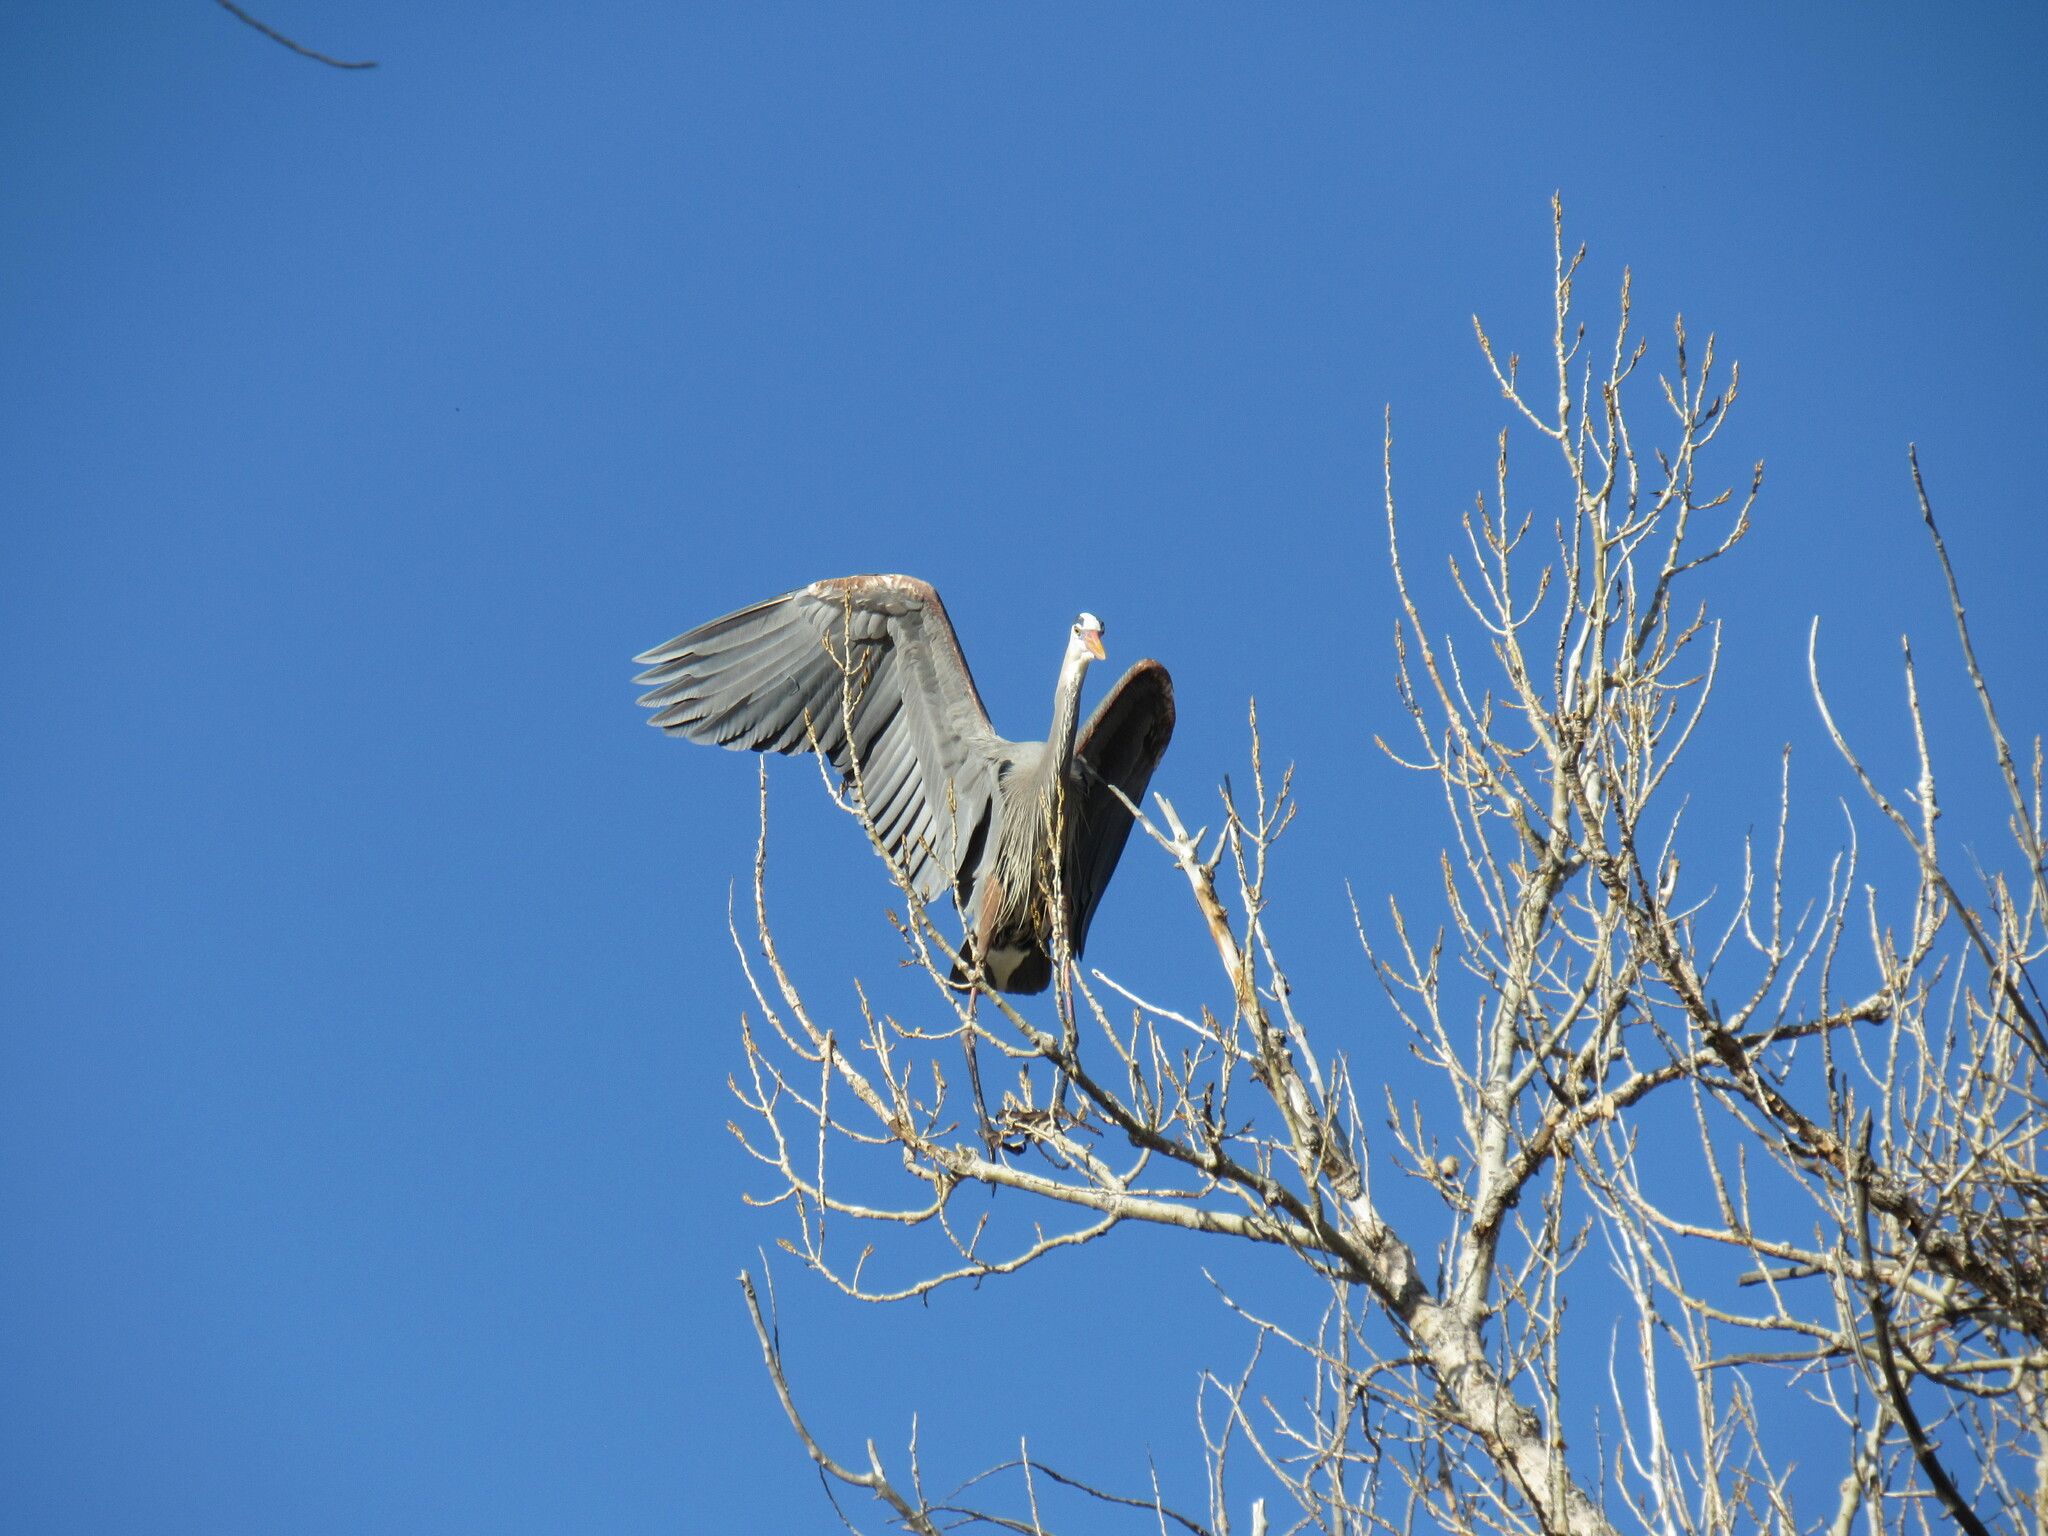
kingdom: Animalia
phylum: Chordata
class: Aves
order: Pelecaniformes
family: Ardeidae
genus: Ardea
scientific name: Ardea herodias
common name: Great blue heron
